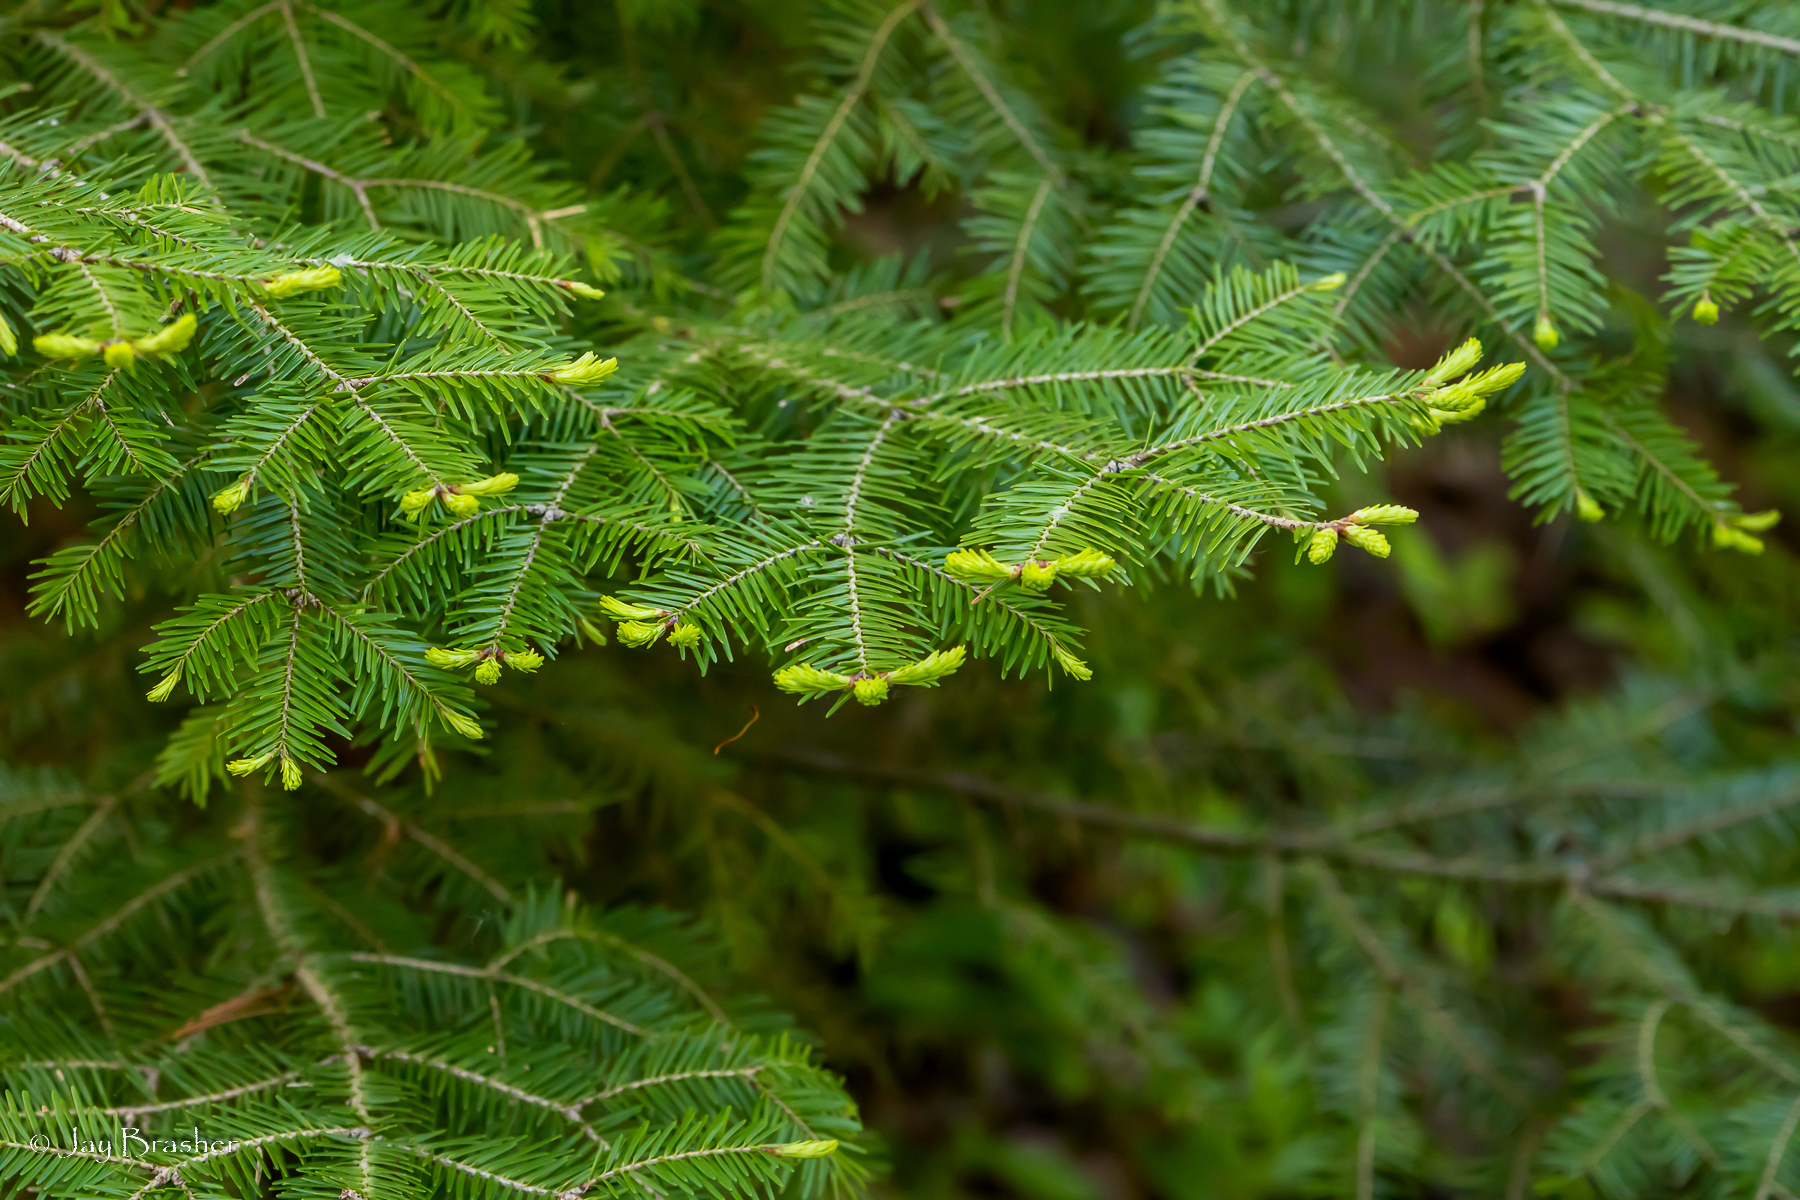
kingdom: Plantae
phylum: Tracheophyta
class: Pinopsida
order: Pinales
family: Pinaceae
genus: Abies
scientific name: Abies balsamea
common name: Balsam fir
